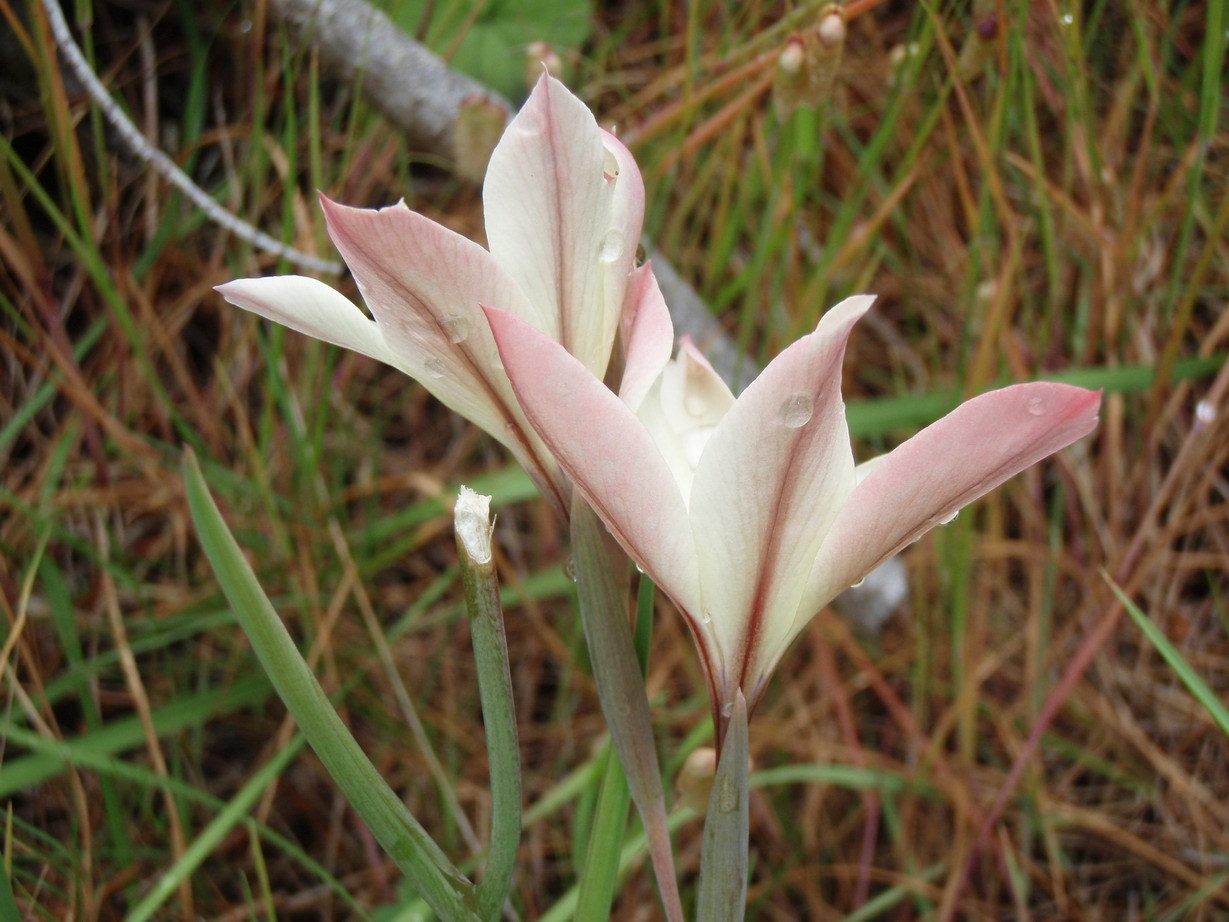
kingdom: Plantae
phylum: Tracheophyta
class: Liliopsida
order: Asparagales
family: Iridaceae
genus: Gladiolus
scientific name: Gladiolus floribundus
